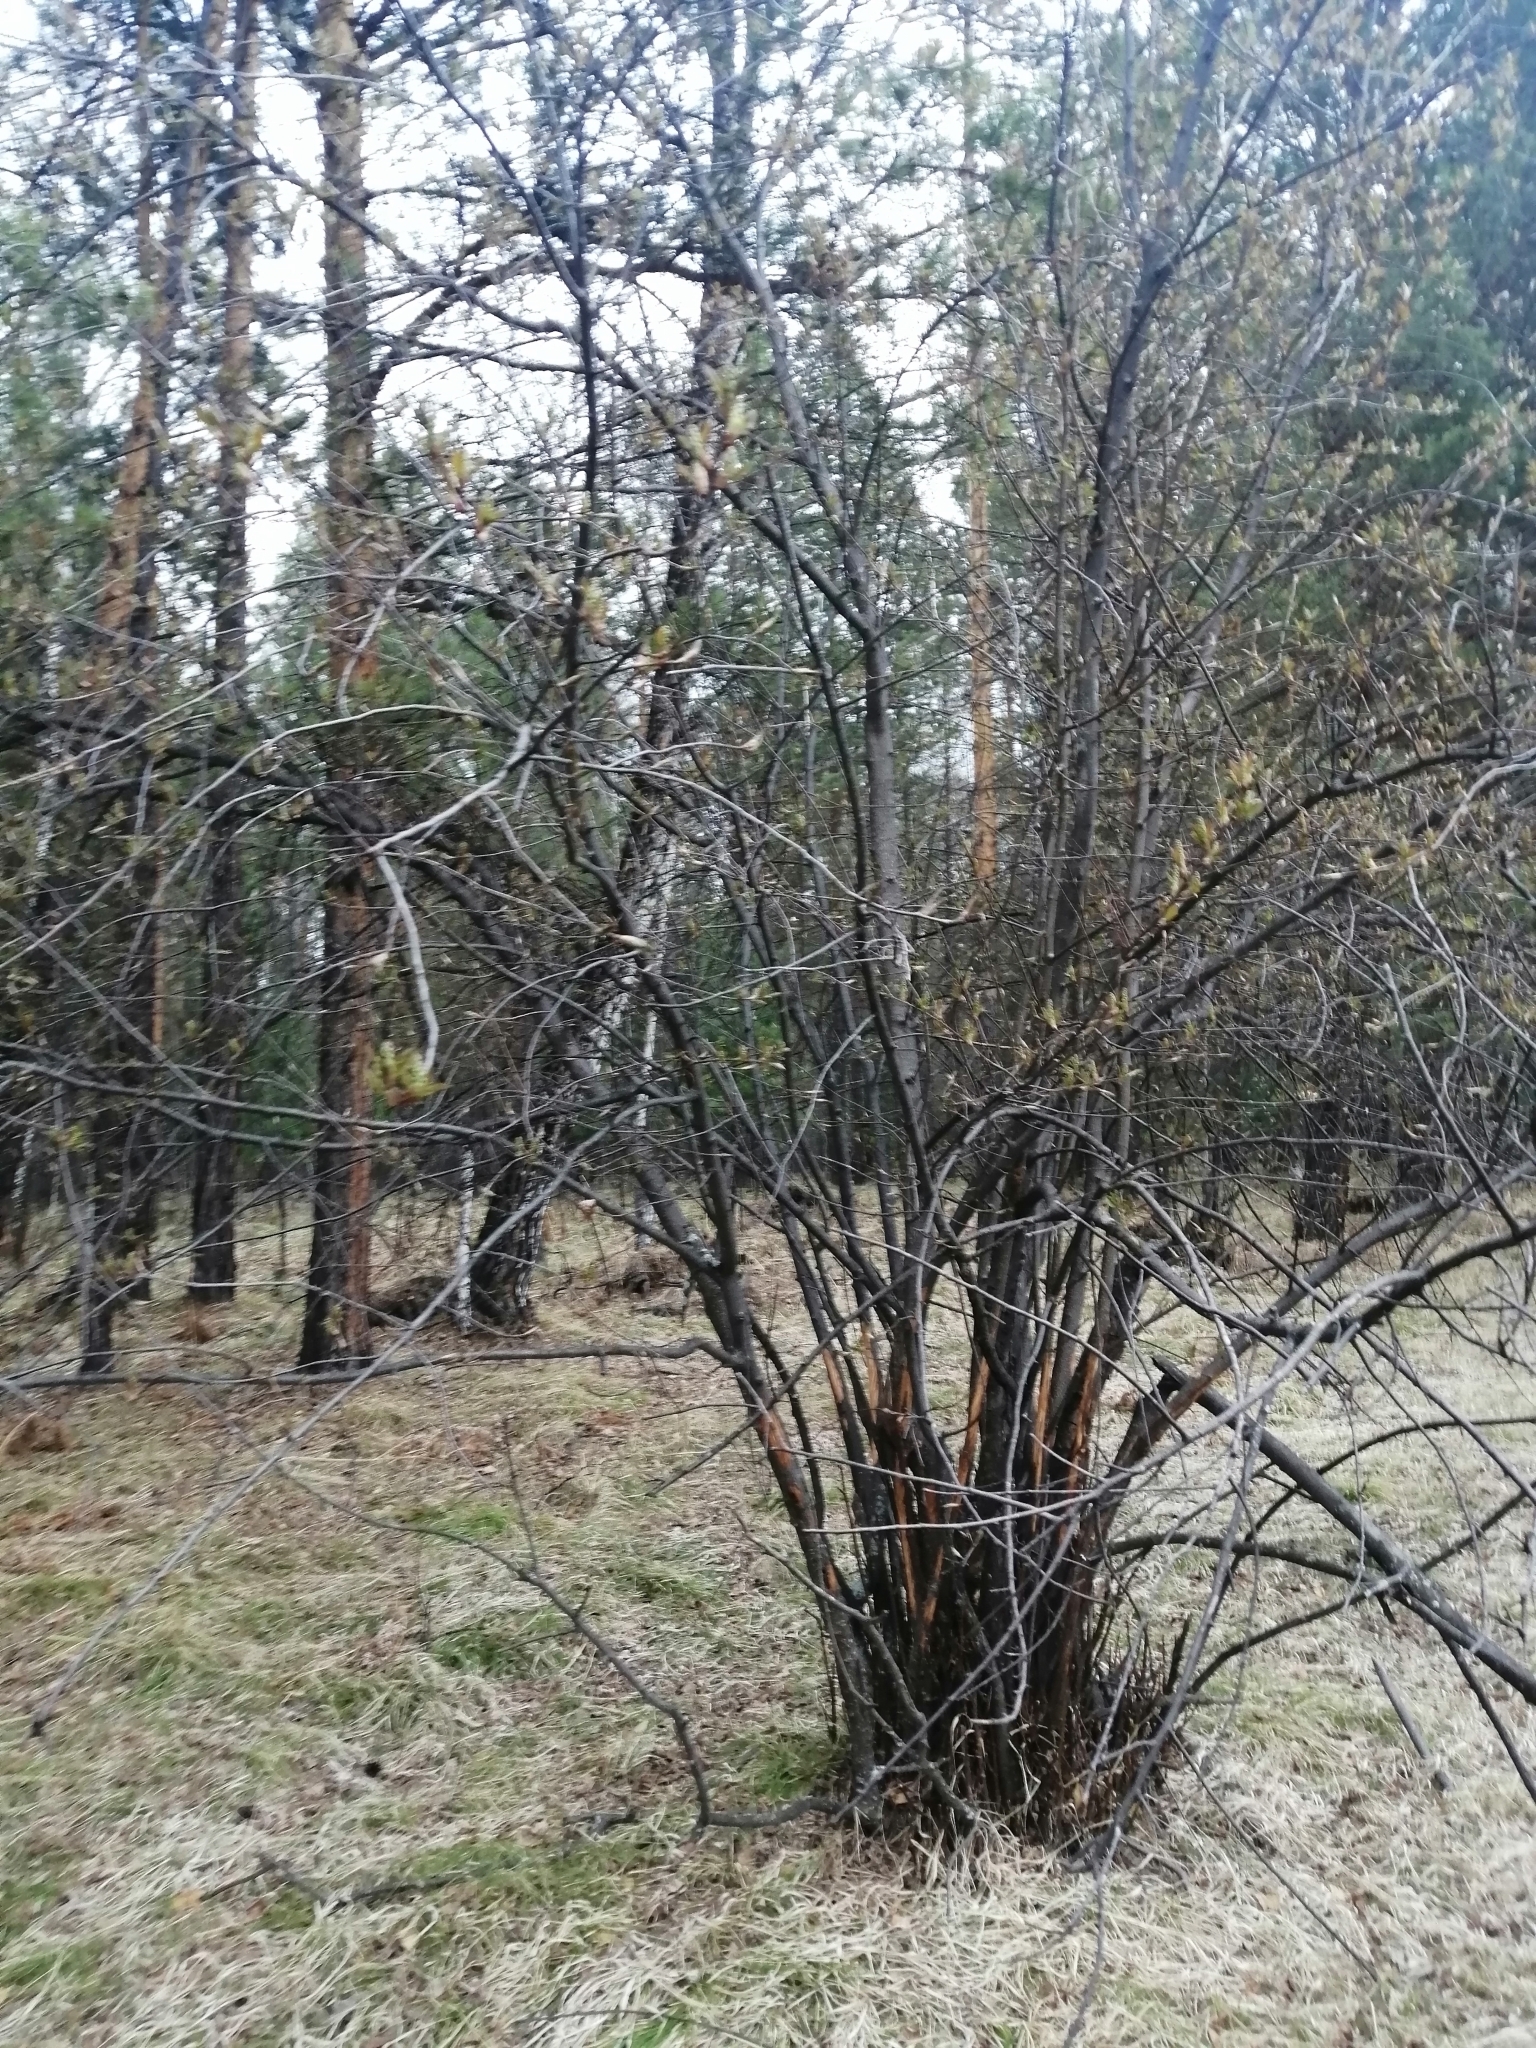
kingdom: Plantae
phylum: Tracheophyta
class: Magnoliopsida
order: Rosales
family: Rosaceae
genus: Prunus
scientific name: Prunus padus
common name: Bird cherry
